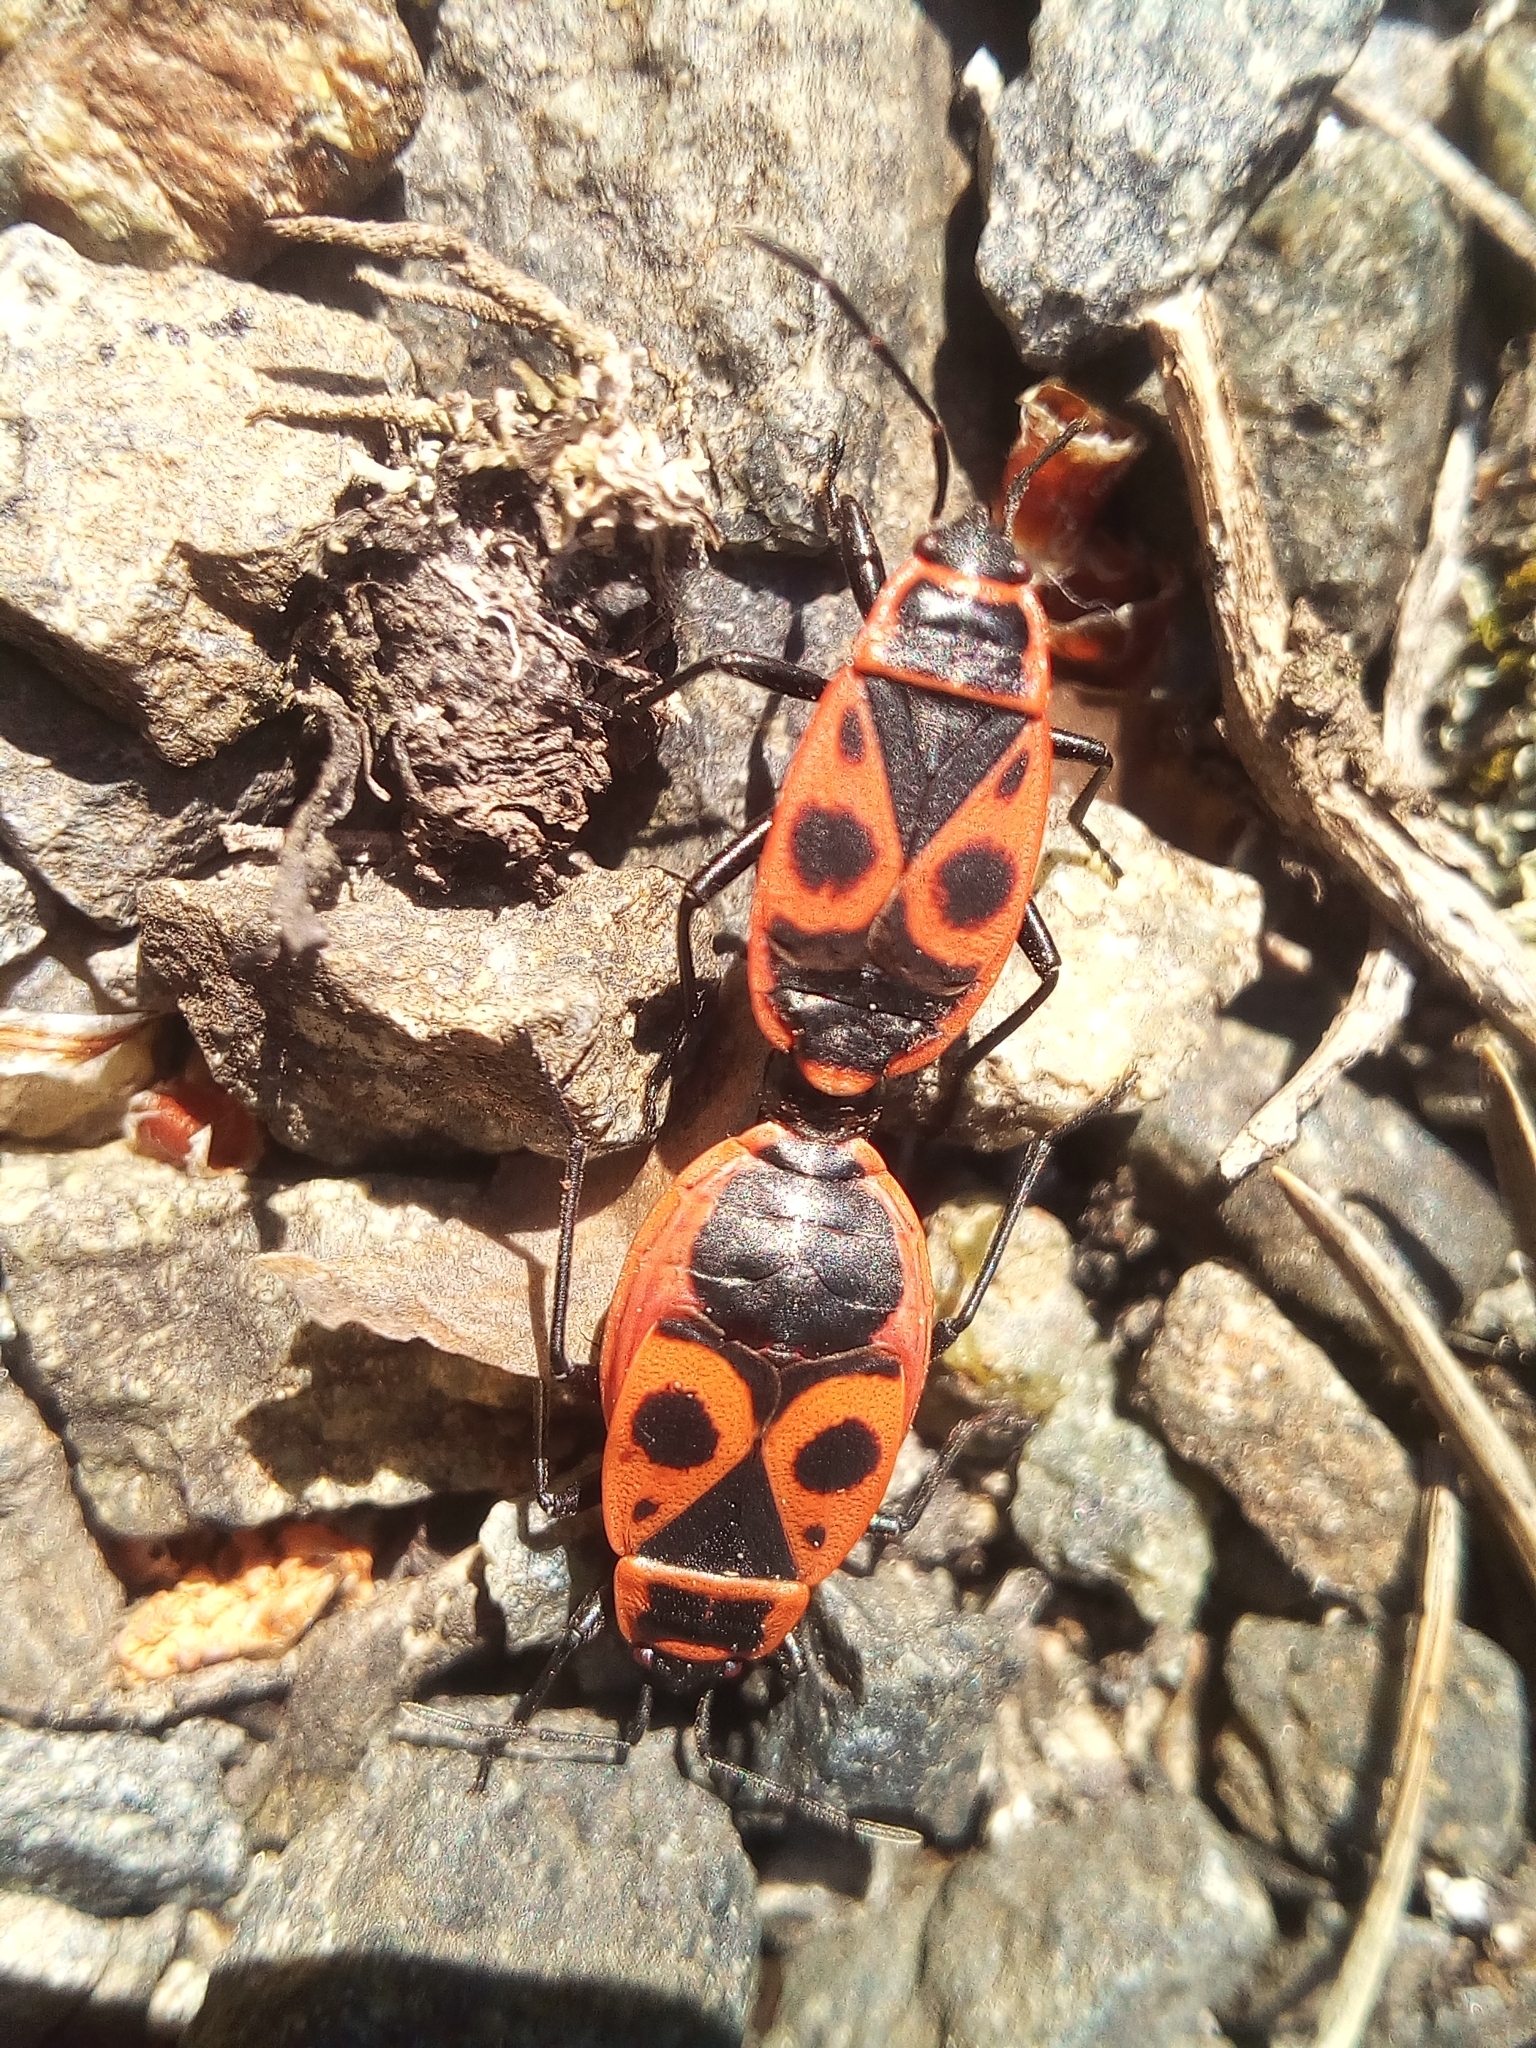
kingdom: Animalia
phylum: Arthropoda
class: Insecta
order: Hemiptera
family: Pyrrhocoridae
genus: Pyrrhocoris
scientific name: Pyrrhocoris apterus
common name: Firebug
